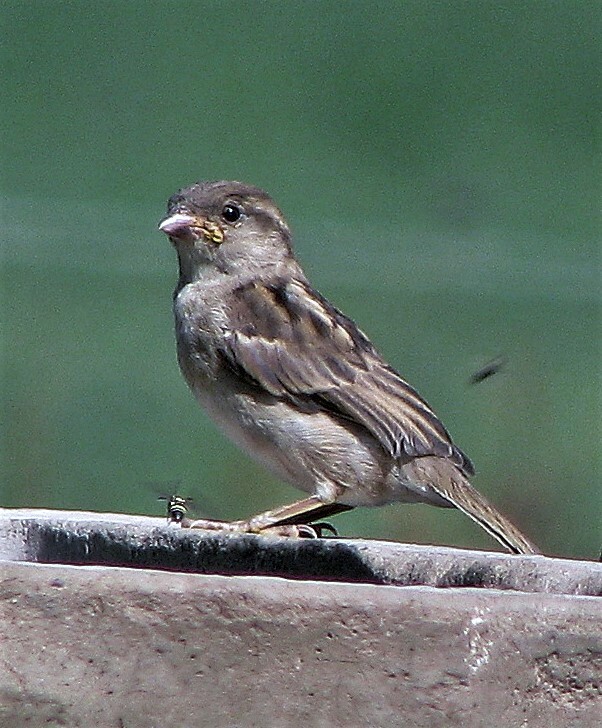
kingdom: Animalia
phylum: Chordata
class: Aves
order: Passeriformes
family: Passeridae
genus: Passer
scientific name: Passer domesticus
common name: House sparrow
